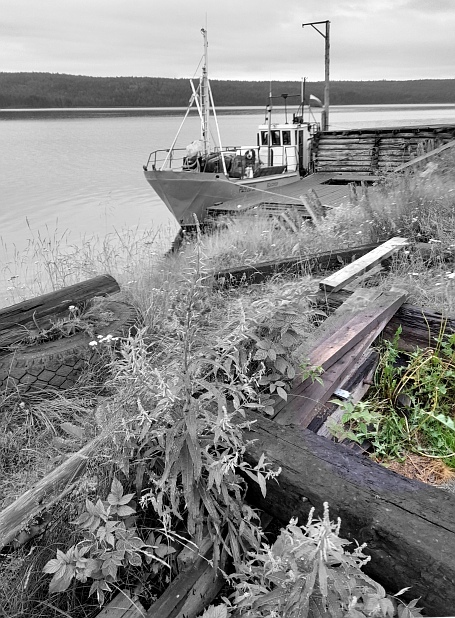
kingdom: Plantae
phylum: Tracheophyta
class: Magnoliopsida
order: Asterales
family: Asteraceae
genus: Taraxacum
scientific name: Taraxacum officinale
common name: Common dandelion
